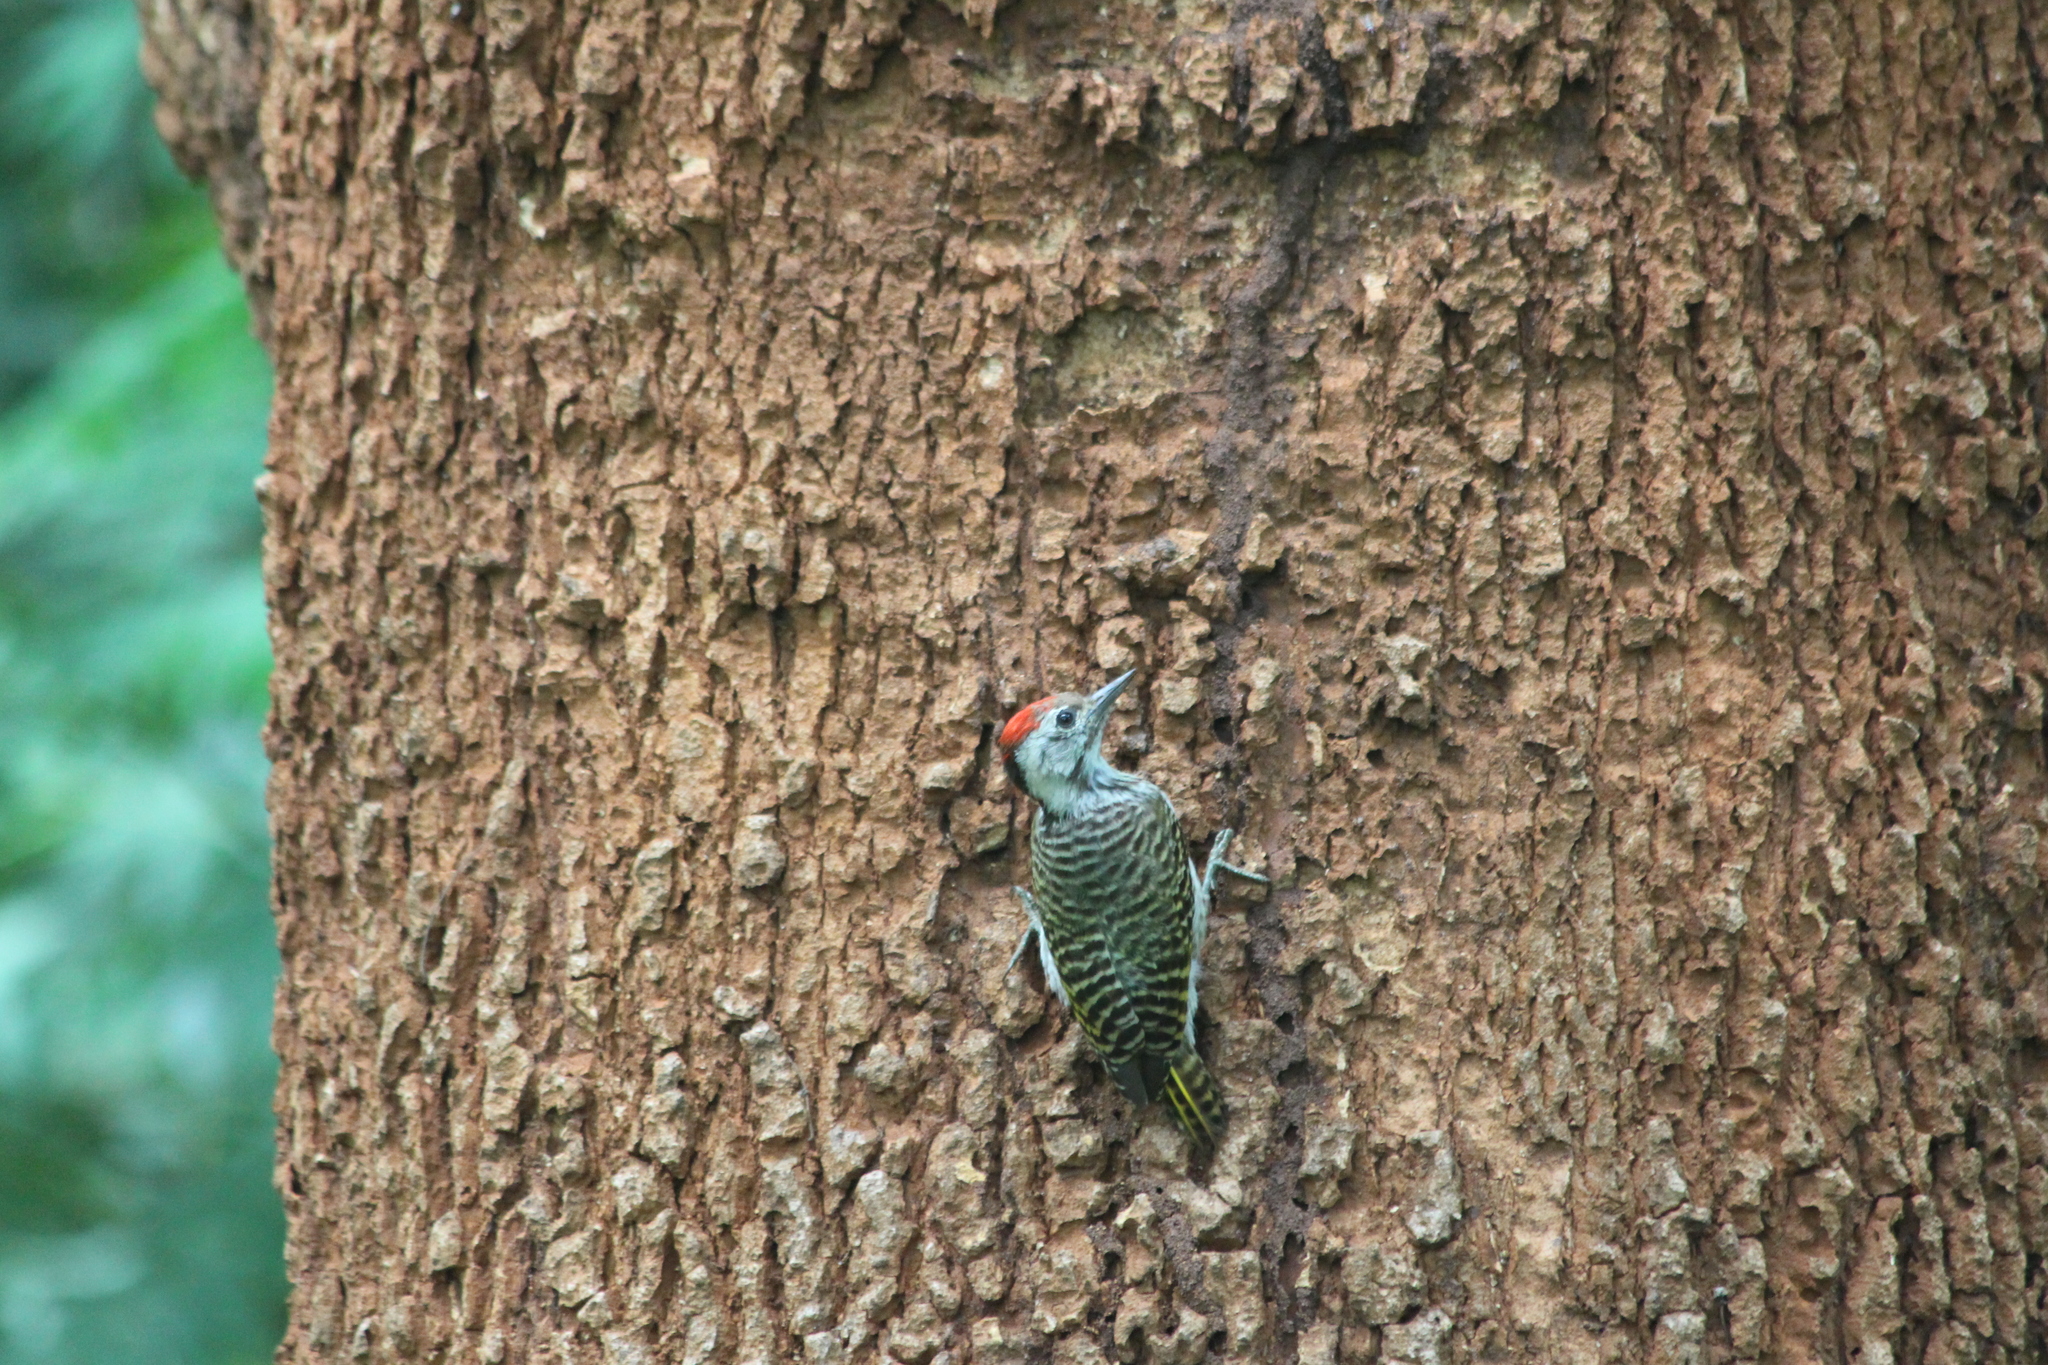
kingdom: Animalia
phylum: Chordata
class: Aves
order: Piciformes
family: Picidae
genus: Dendropicos
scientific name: Dendropicos fuscescens
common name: Cardinal woodpecker
